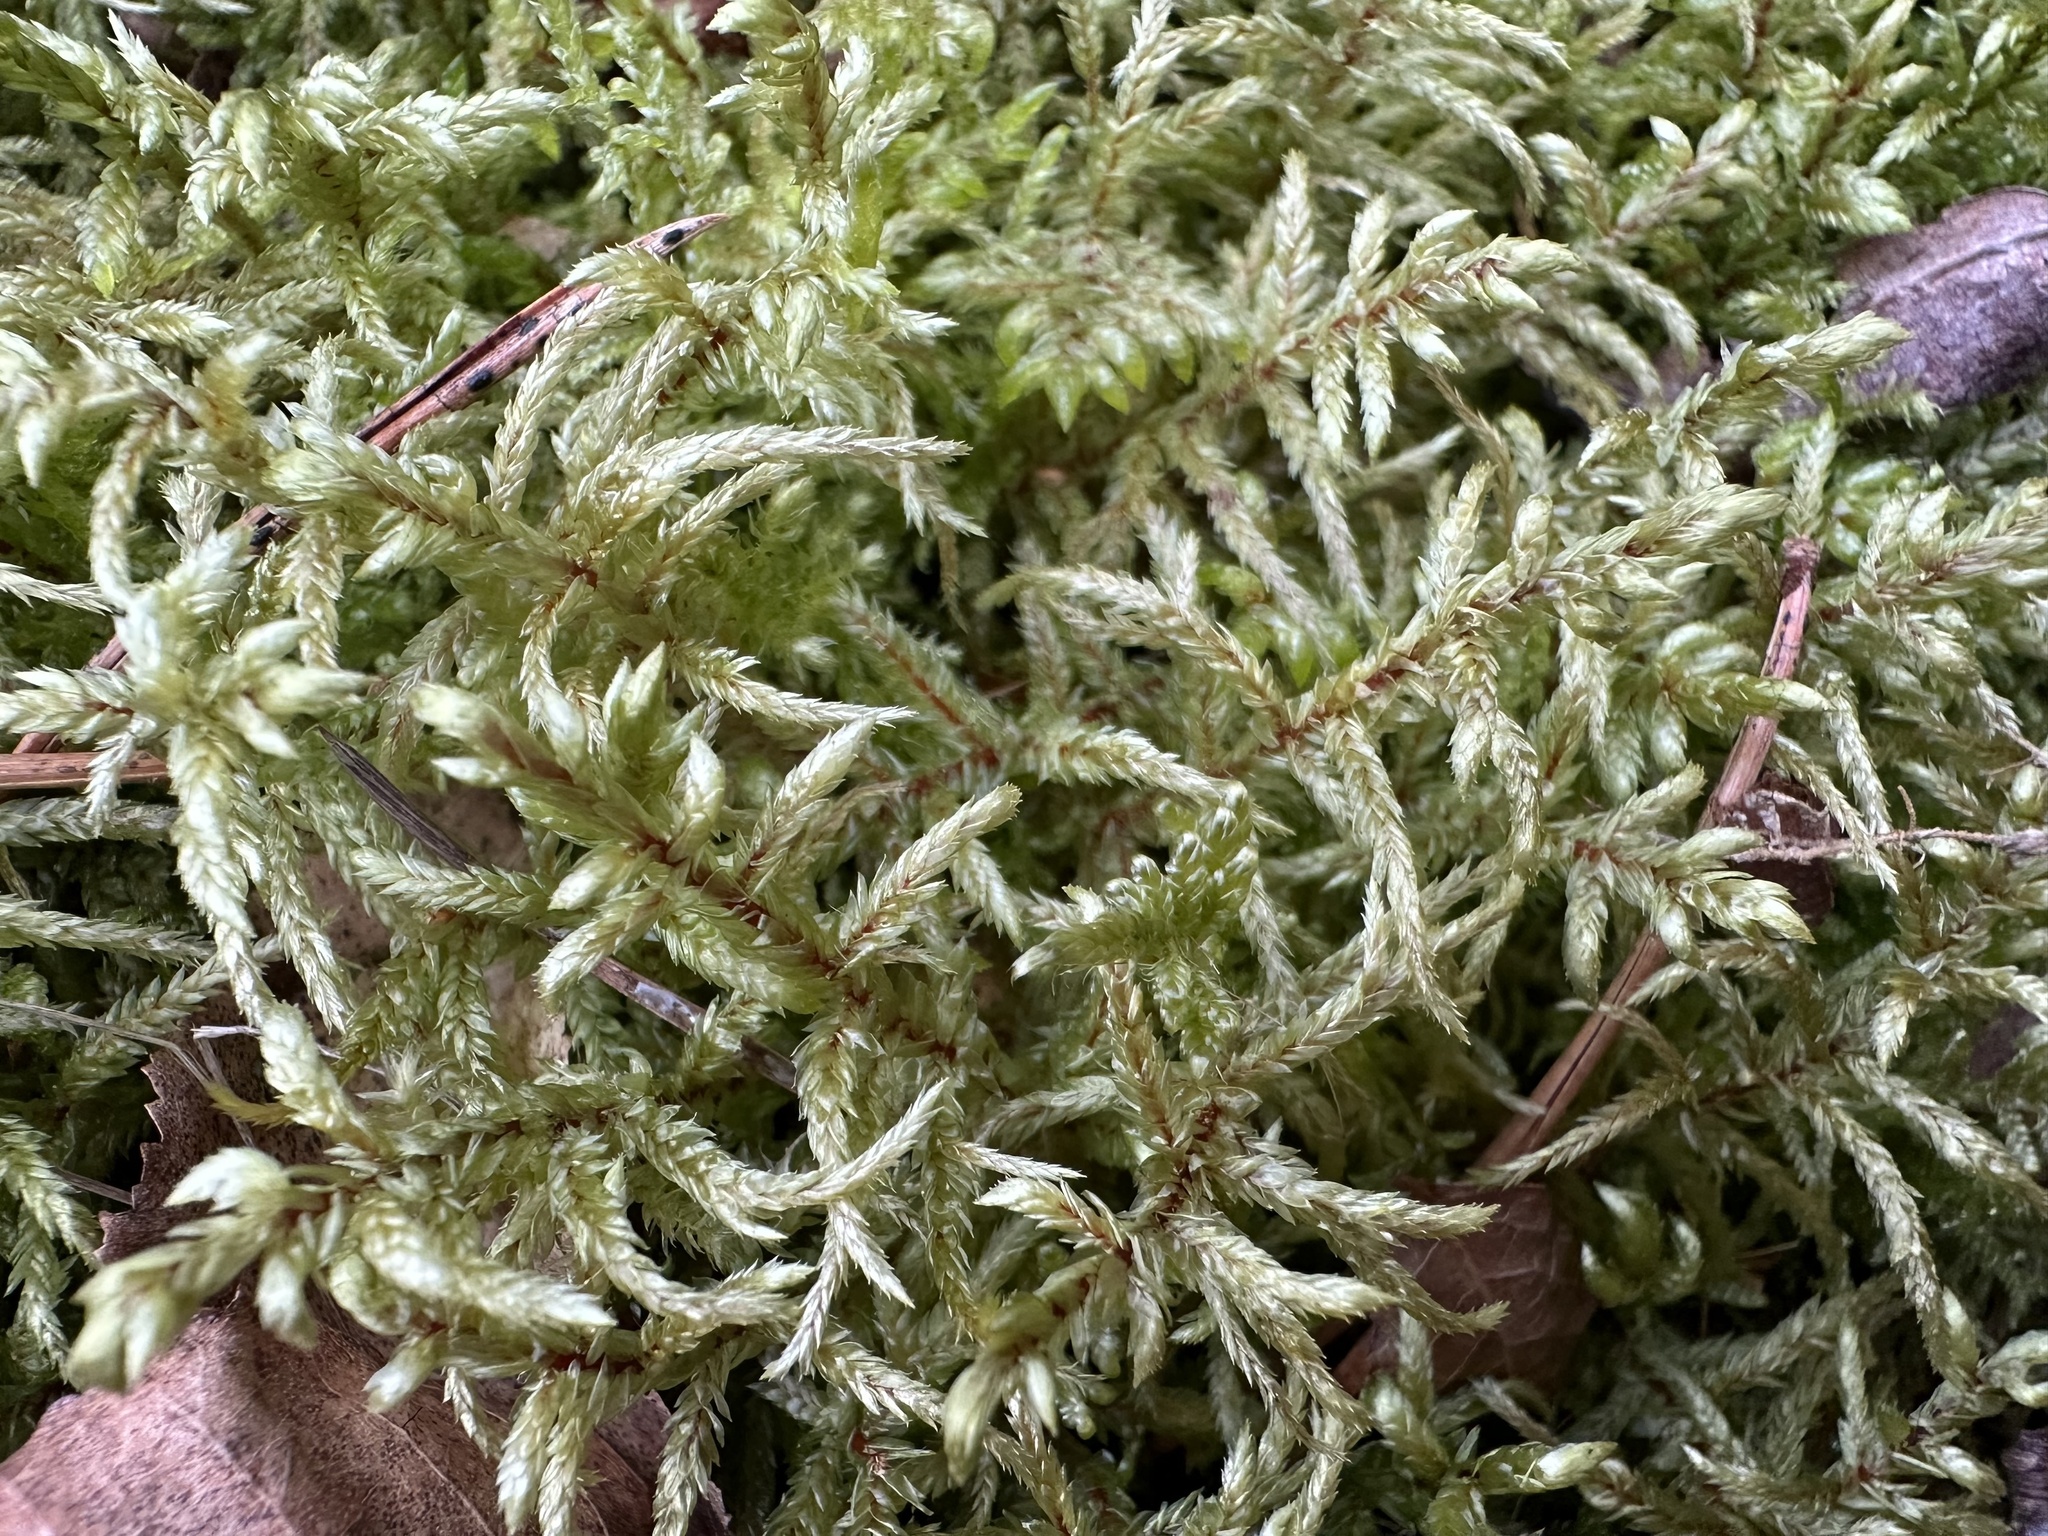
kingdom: Plantae
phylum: Bryophyta
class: Bryopsida
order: Hypnales
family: Hylocomiaceae
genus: Pleurozium
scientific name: Pleurozium schreberi
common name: Red-stemmed feather moss
